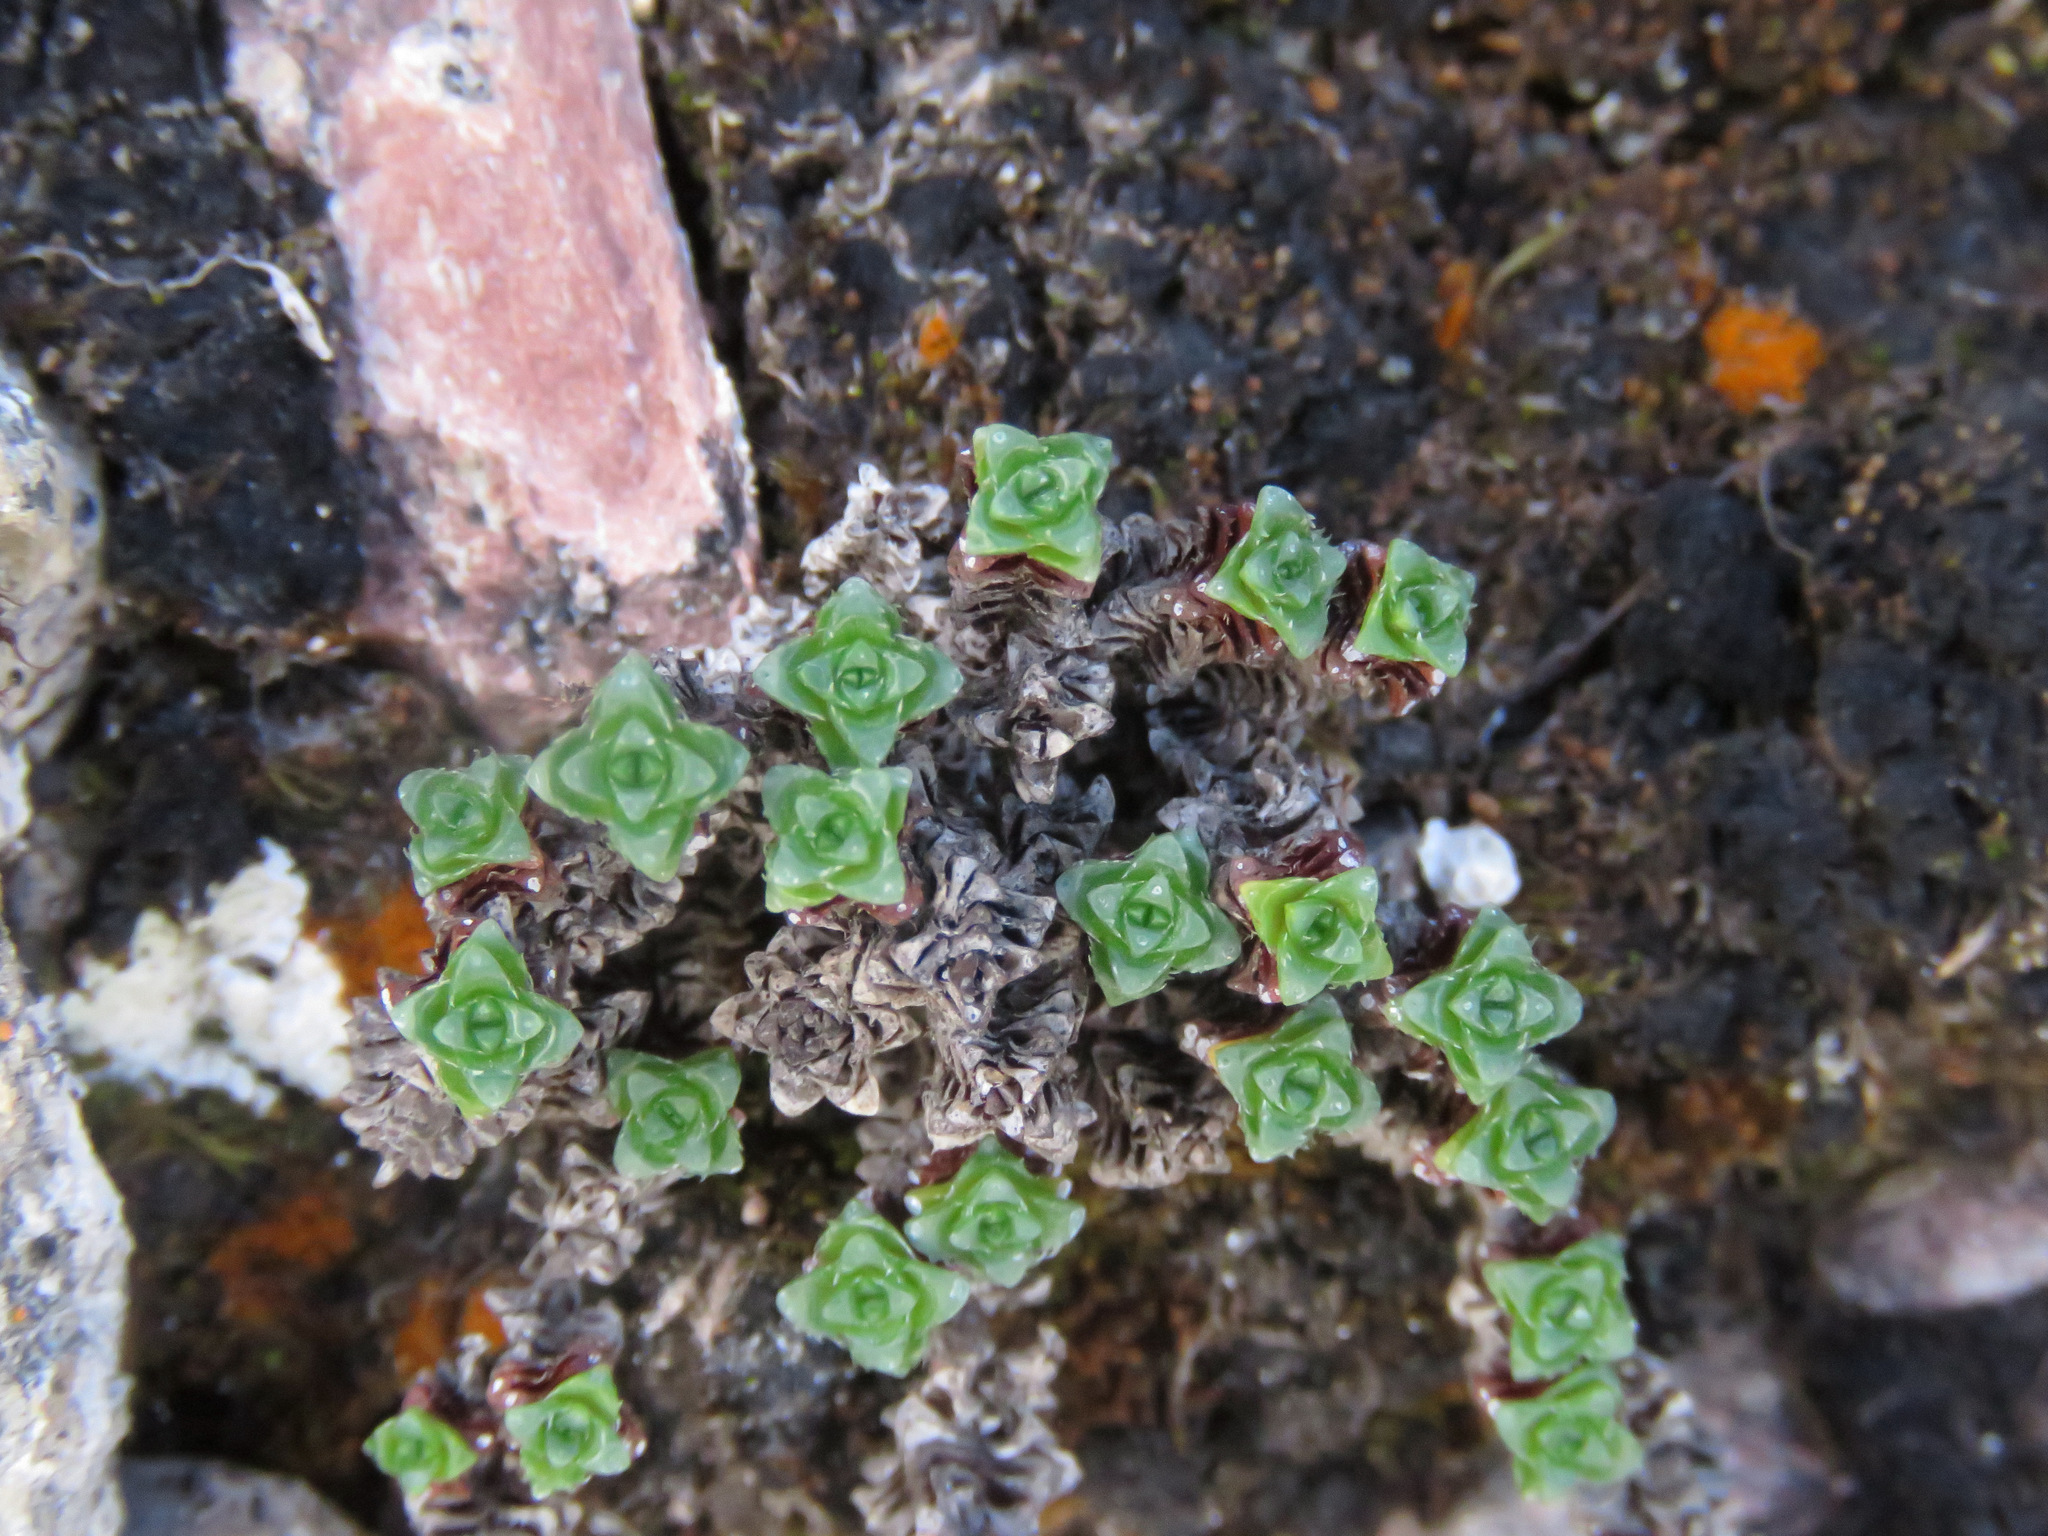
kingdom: Plantae
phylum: Tracheophyta
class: Magnoliopsida
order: Saxifragales
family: Saxifragaceae
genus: Saxifraga
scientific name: Saxifraga oppositifolia
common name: Purple saxifrage
